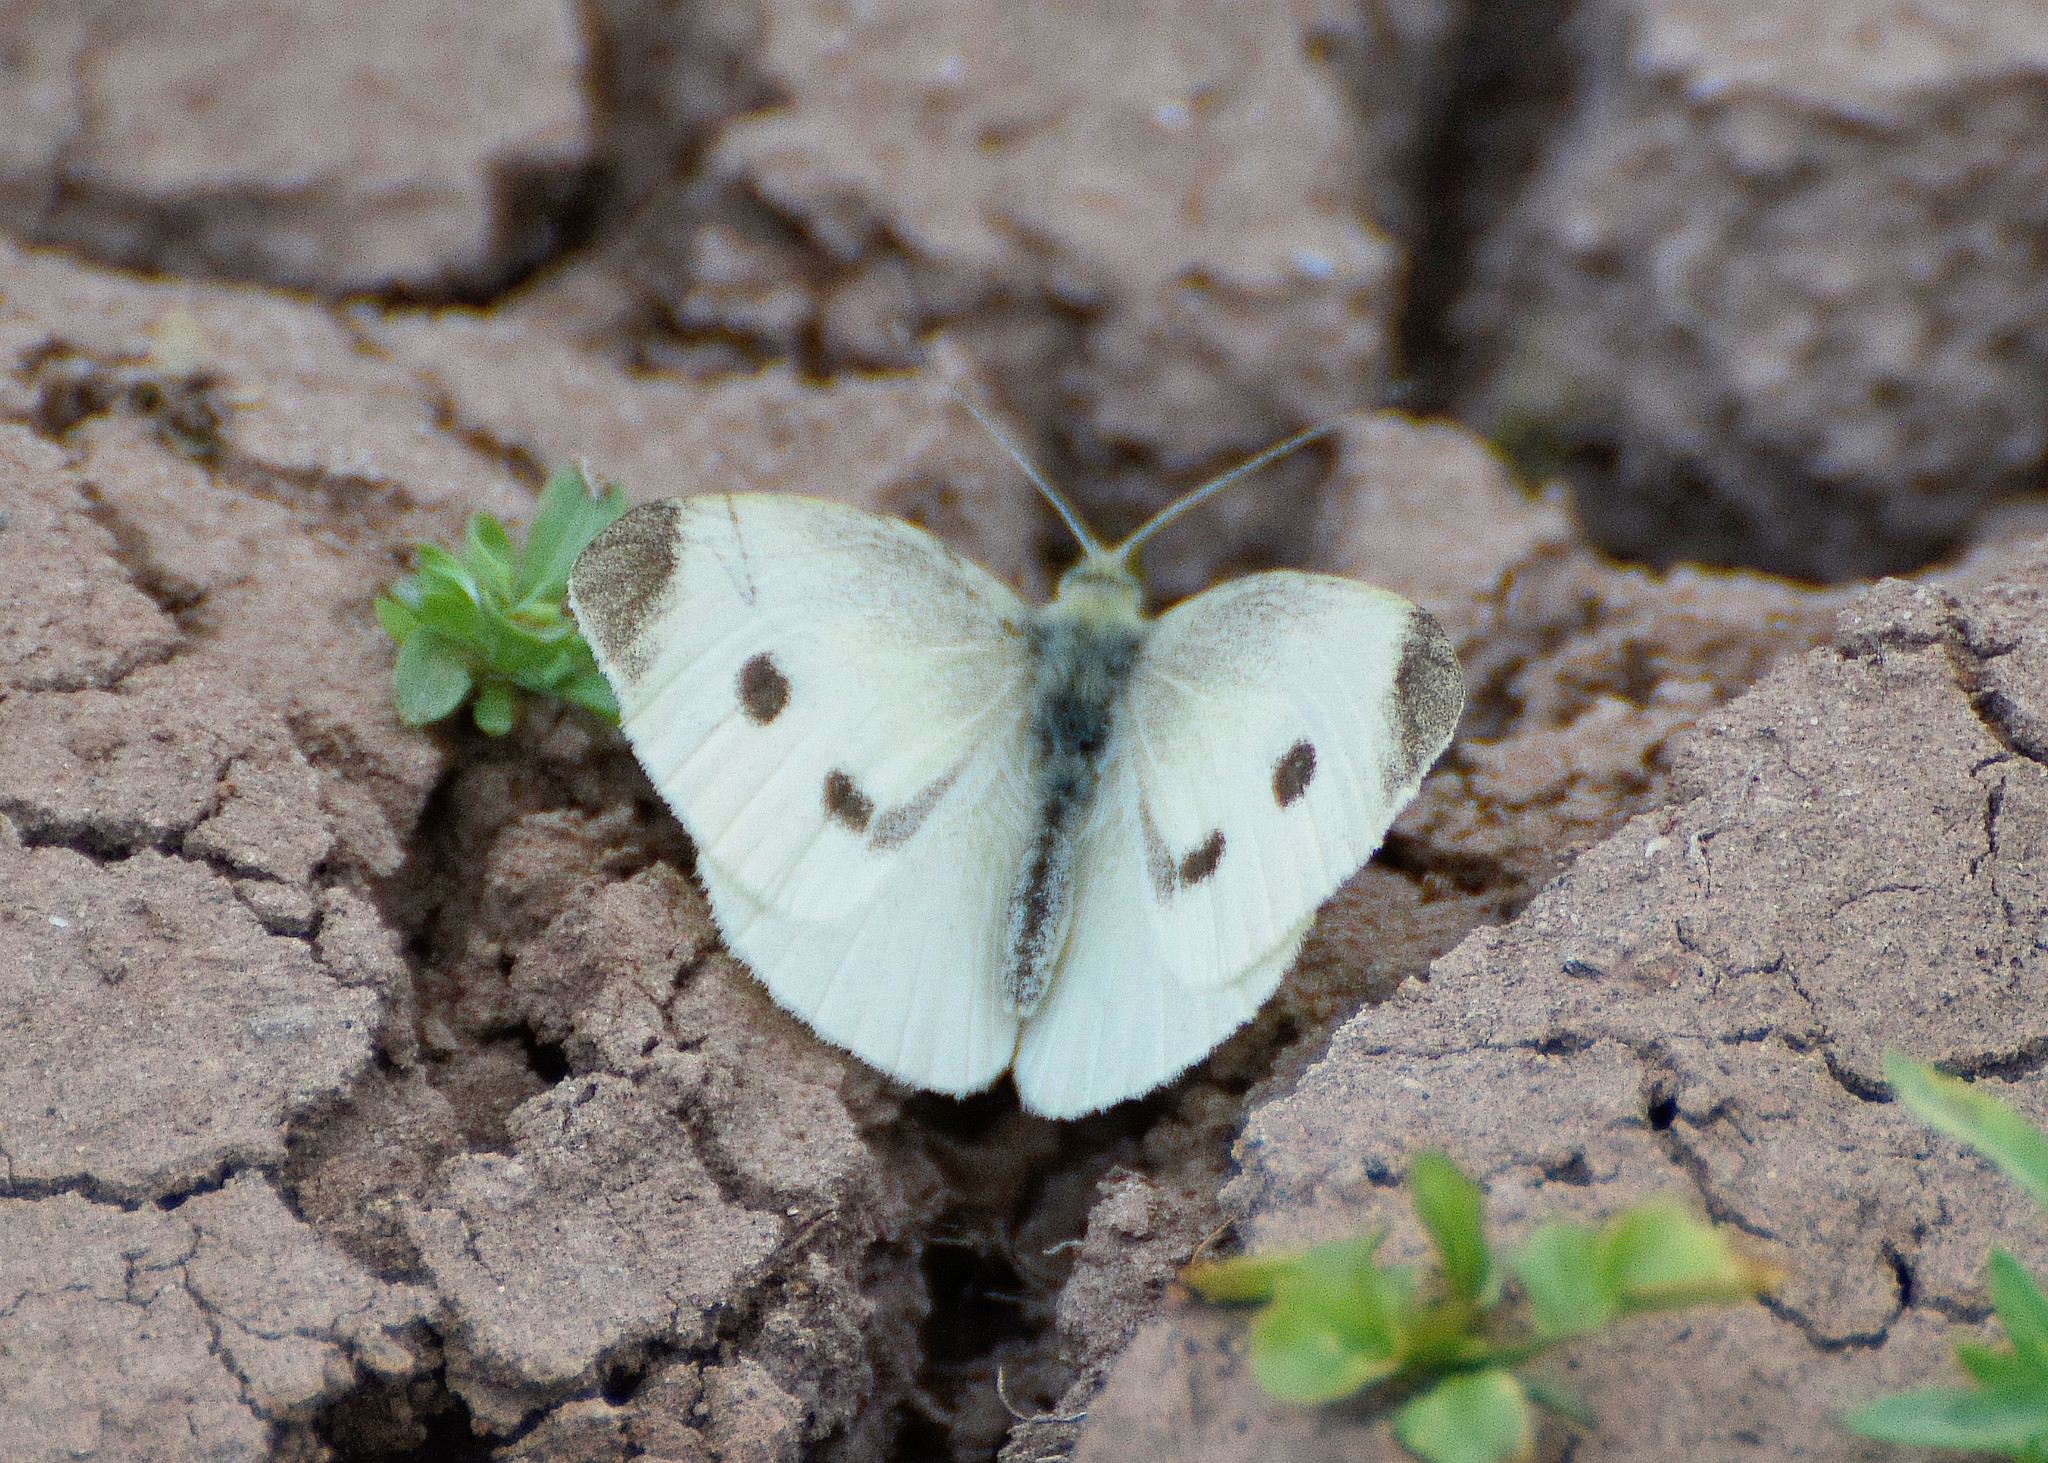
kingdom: Animalia
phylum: Arthropoda
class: Insecta
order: Lepidoptera
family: Pieridae
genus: Pieris
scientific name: Pieris rapae
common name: Small white
